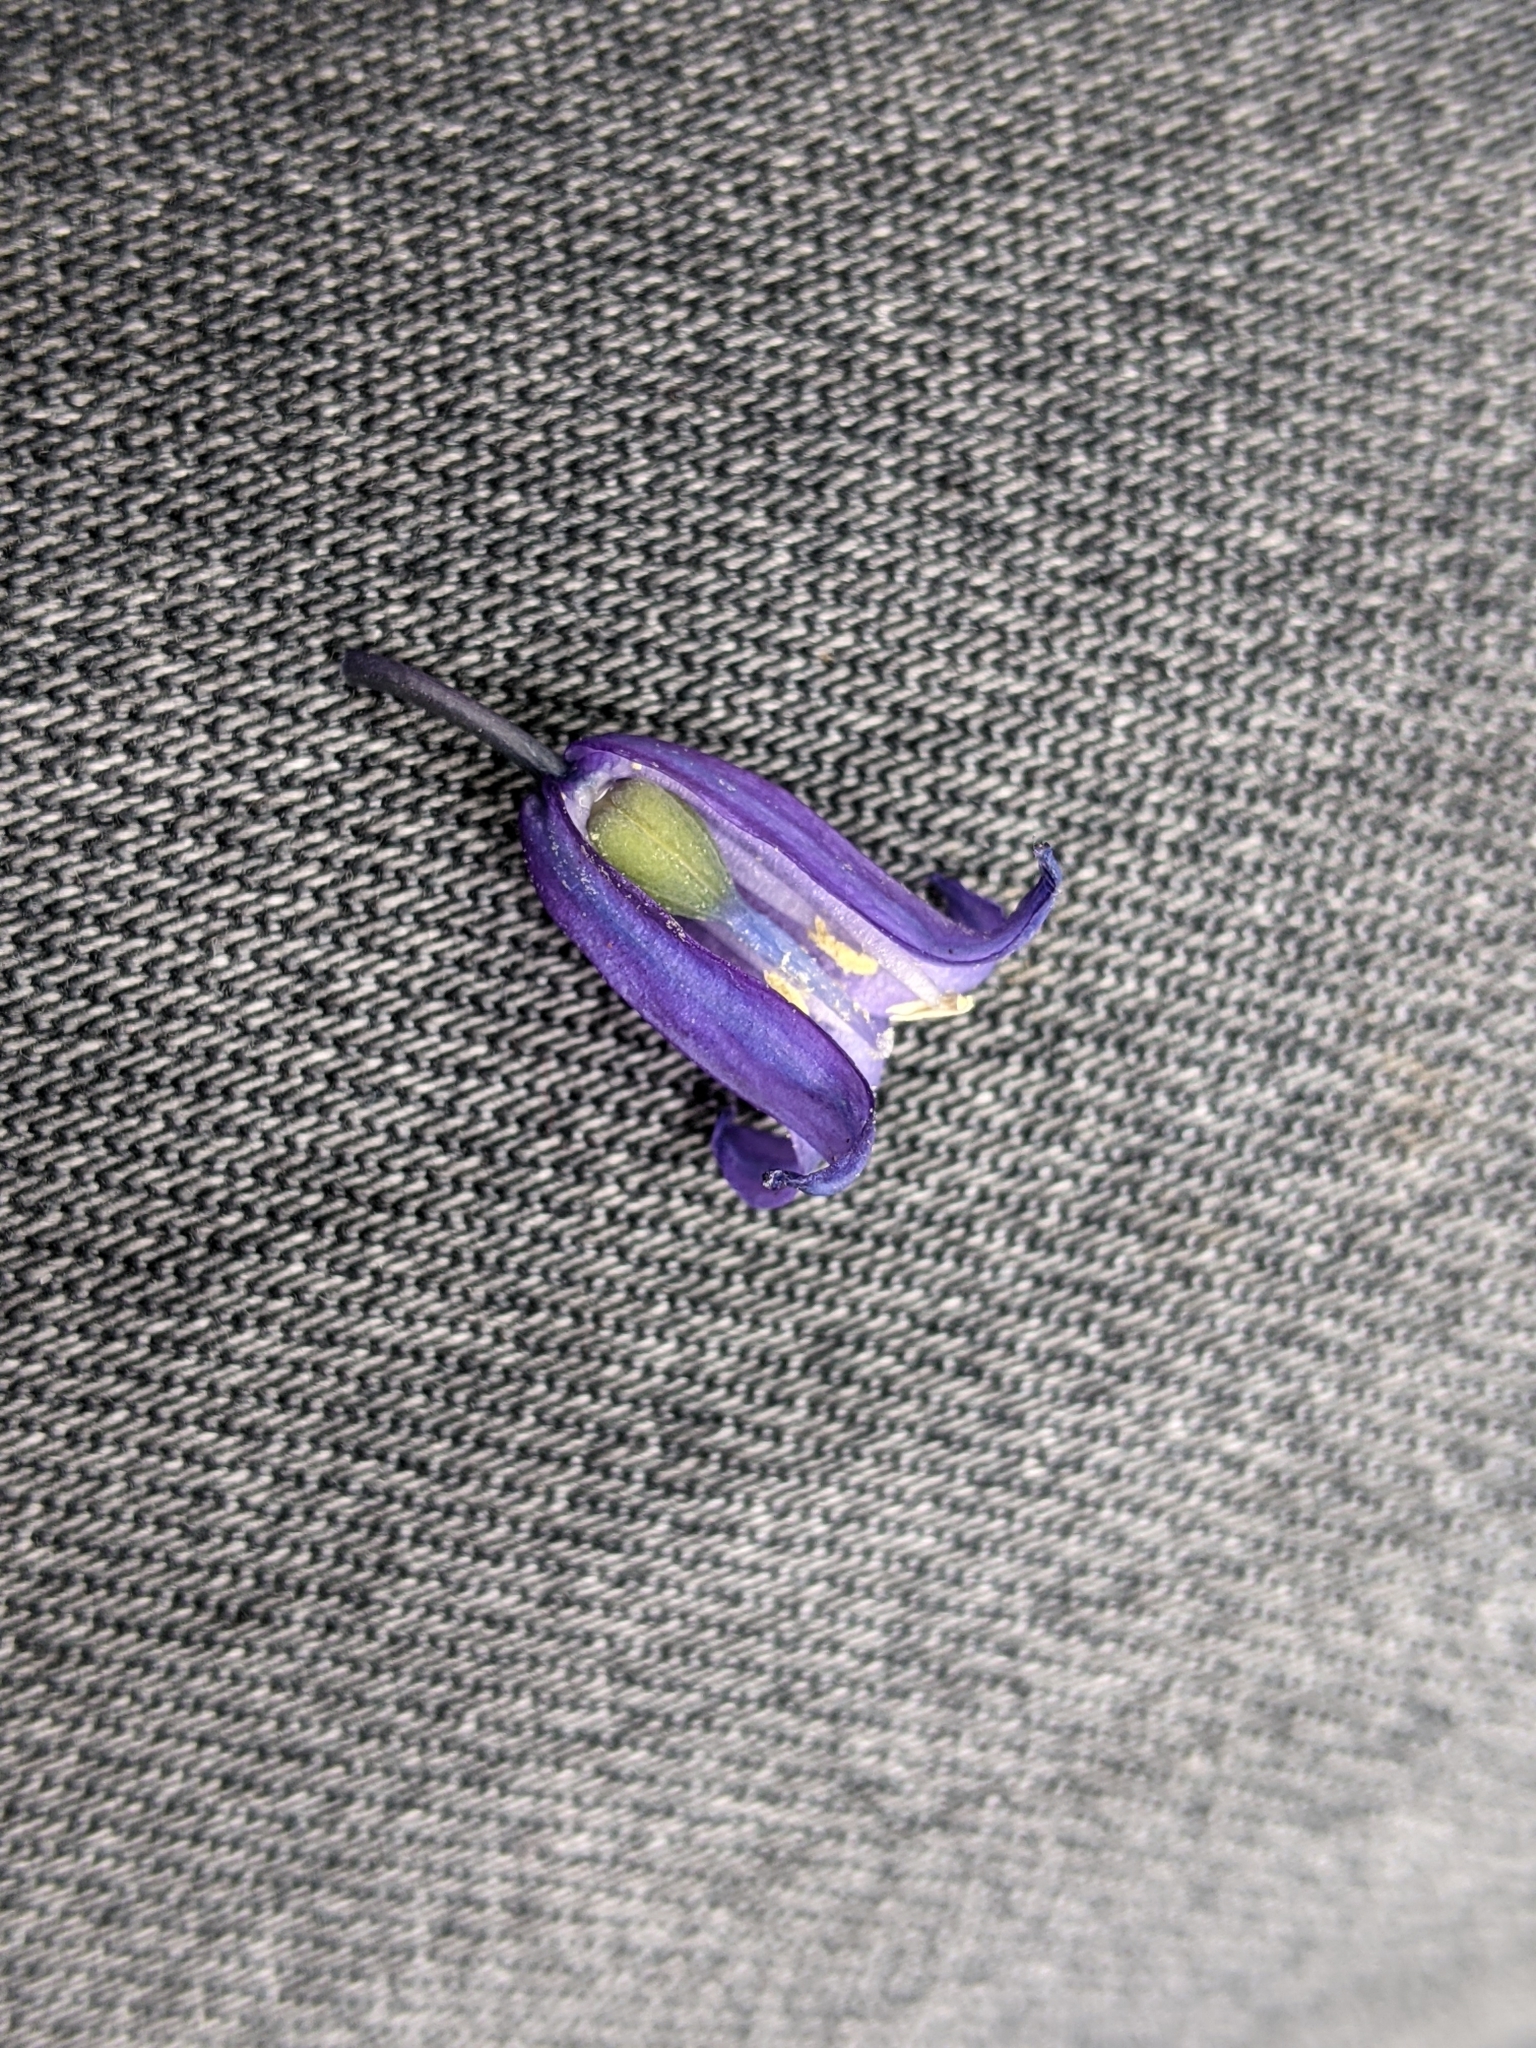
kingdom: Plantae
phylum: Tracheophyta
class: Liliopsida
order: Asparagales
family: Asparagaceae
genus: Hyacinthoides
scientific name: Hyacinthoides non-scripta
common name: Bluebell
